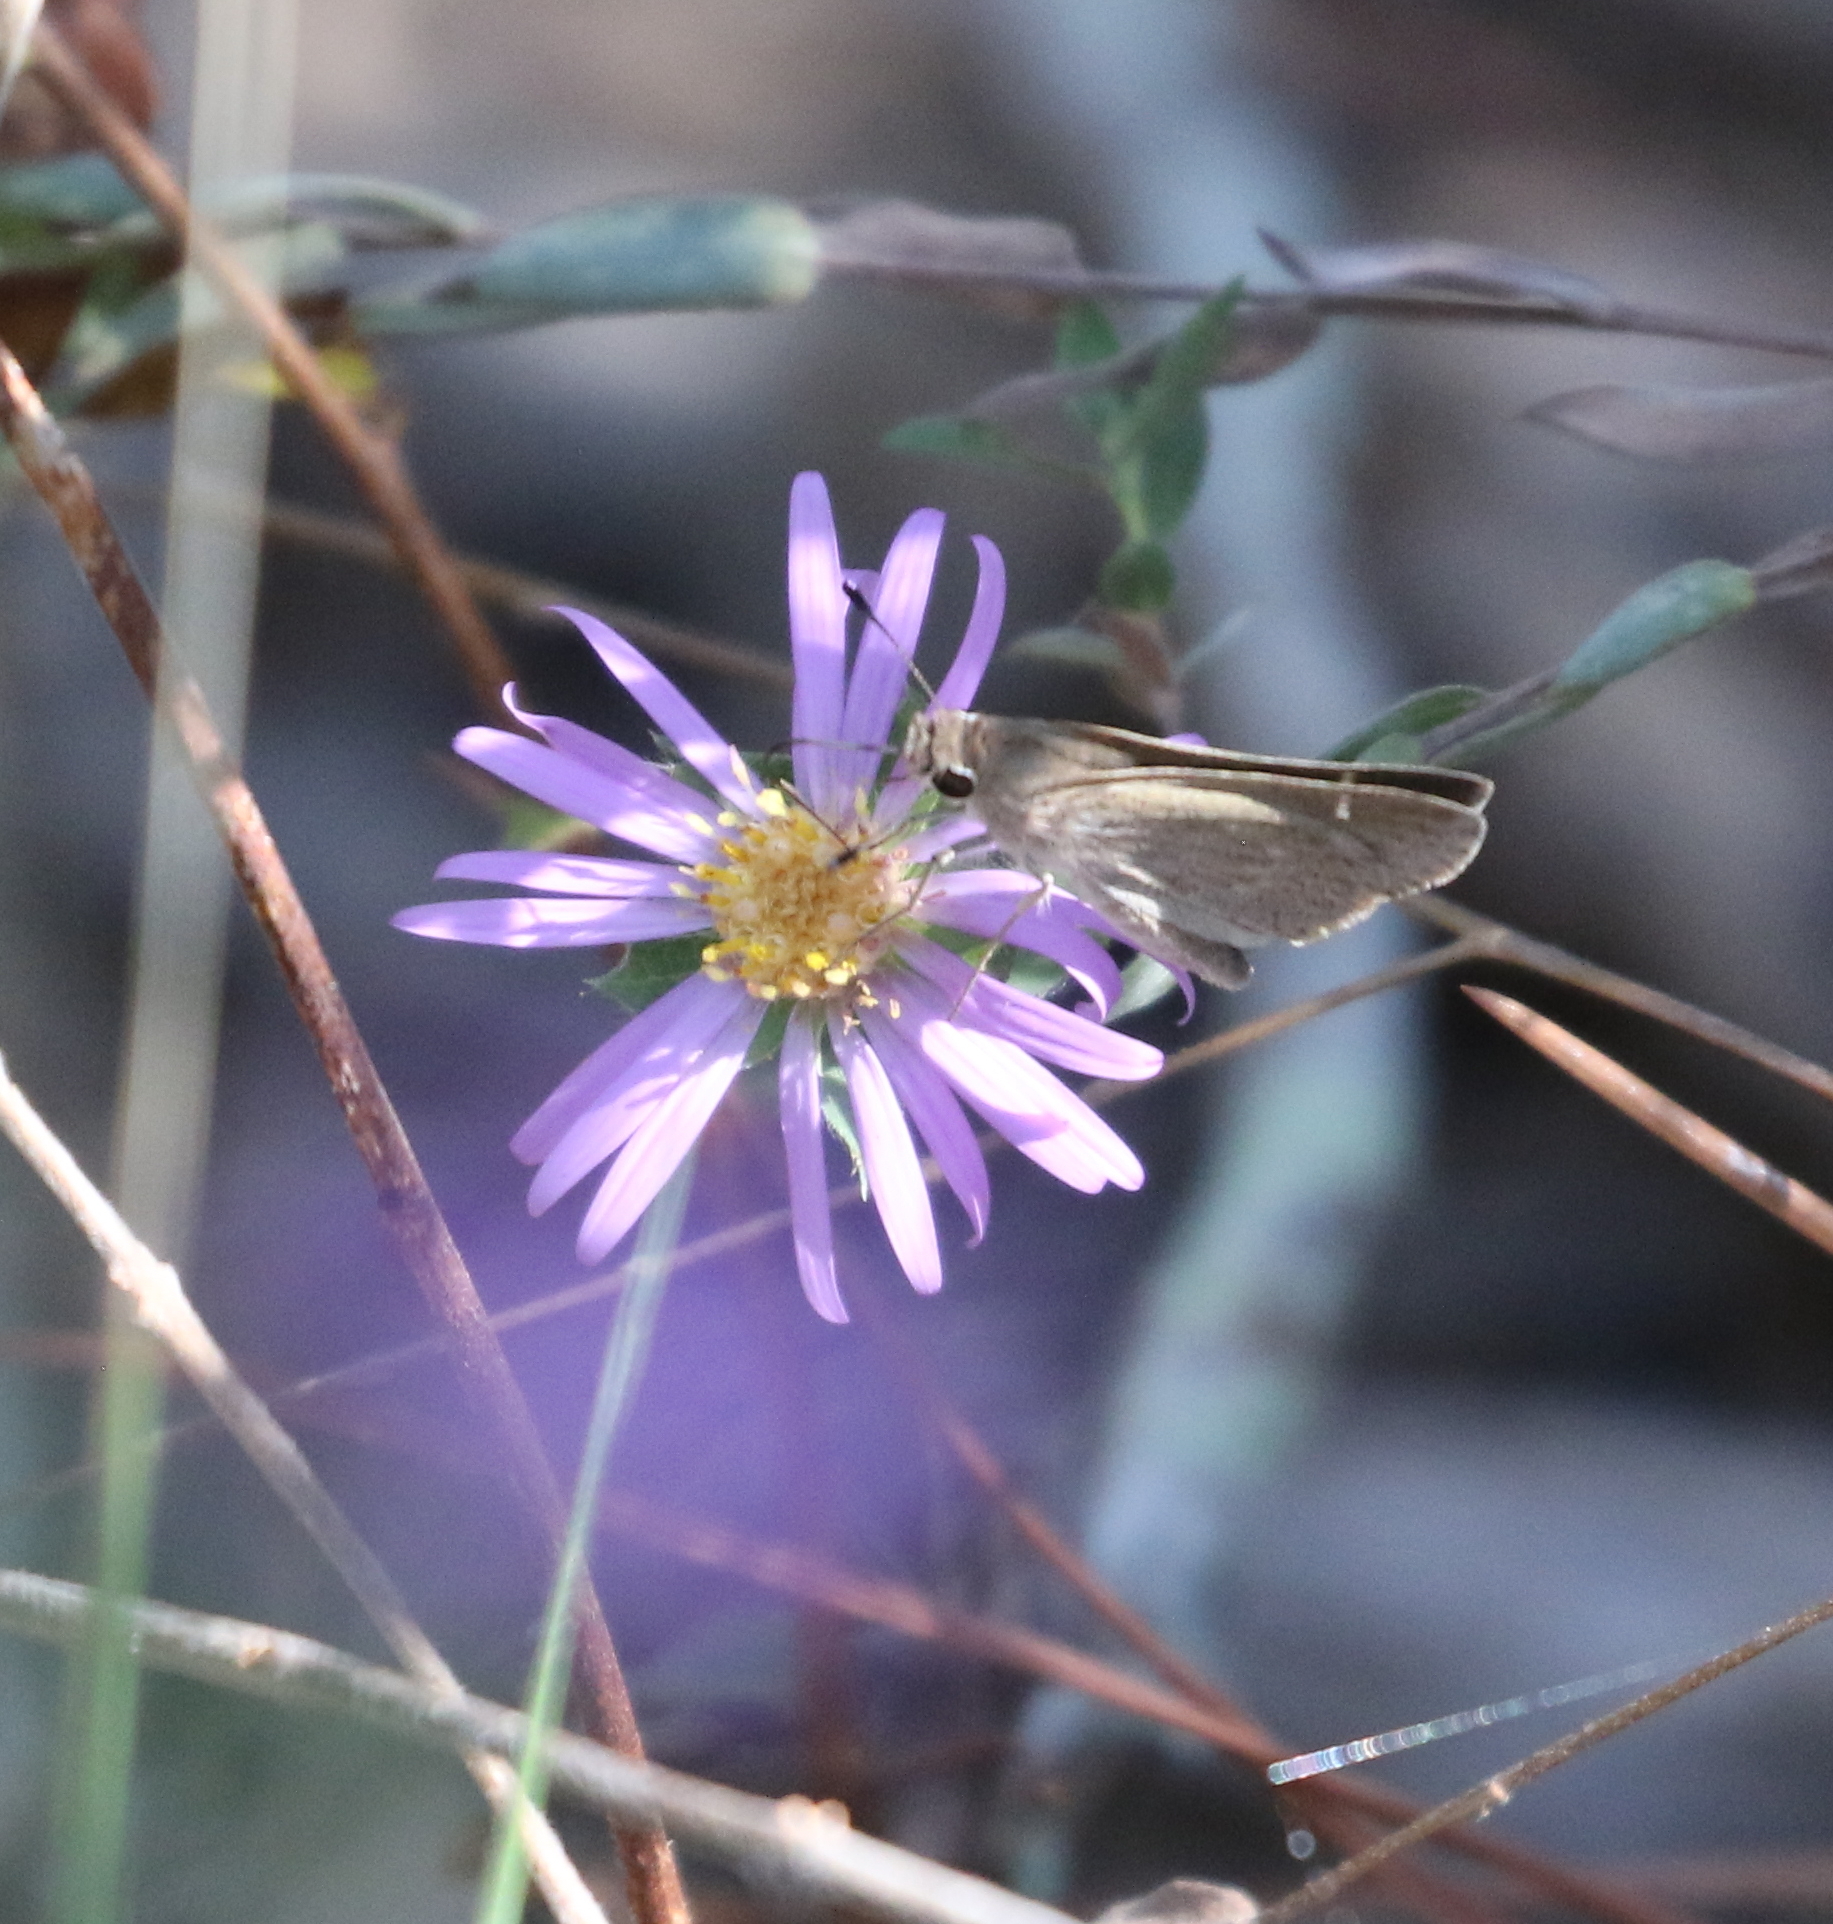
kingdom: Animalia
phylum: Arthropoda
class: Insecta
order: Lepidoptera
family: Hesperiidae
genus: Lerodea
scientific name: Lerodea eufala
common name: Eufala skipper
